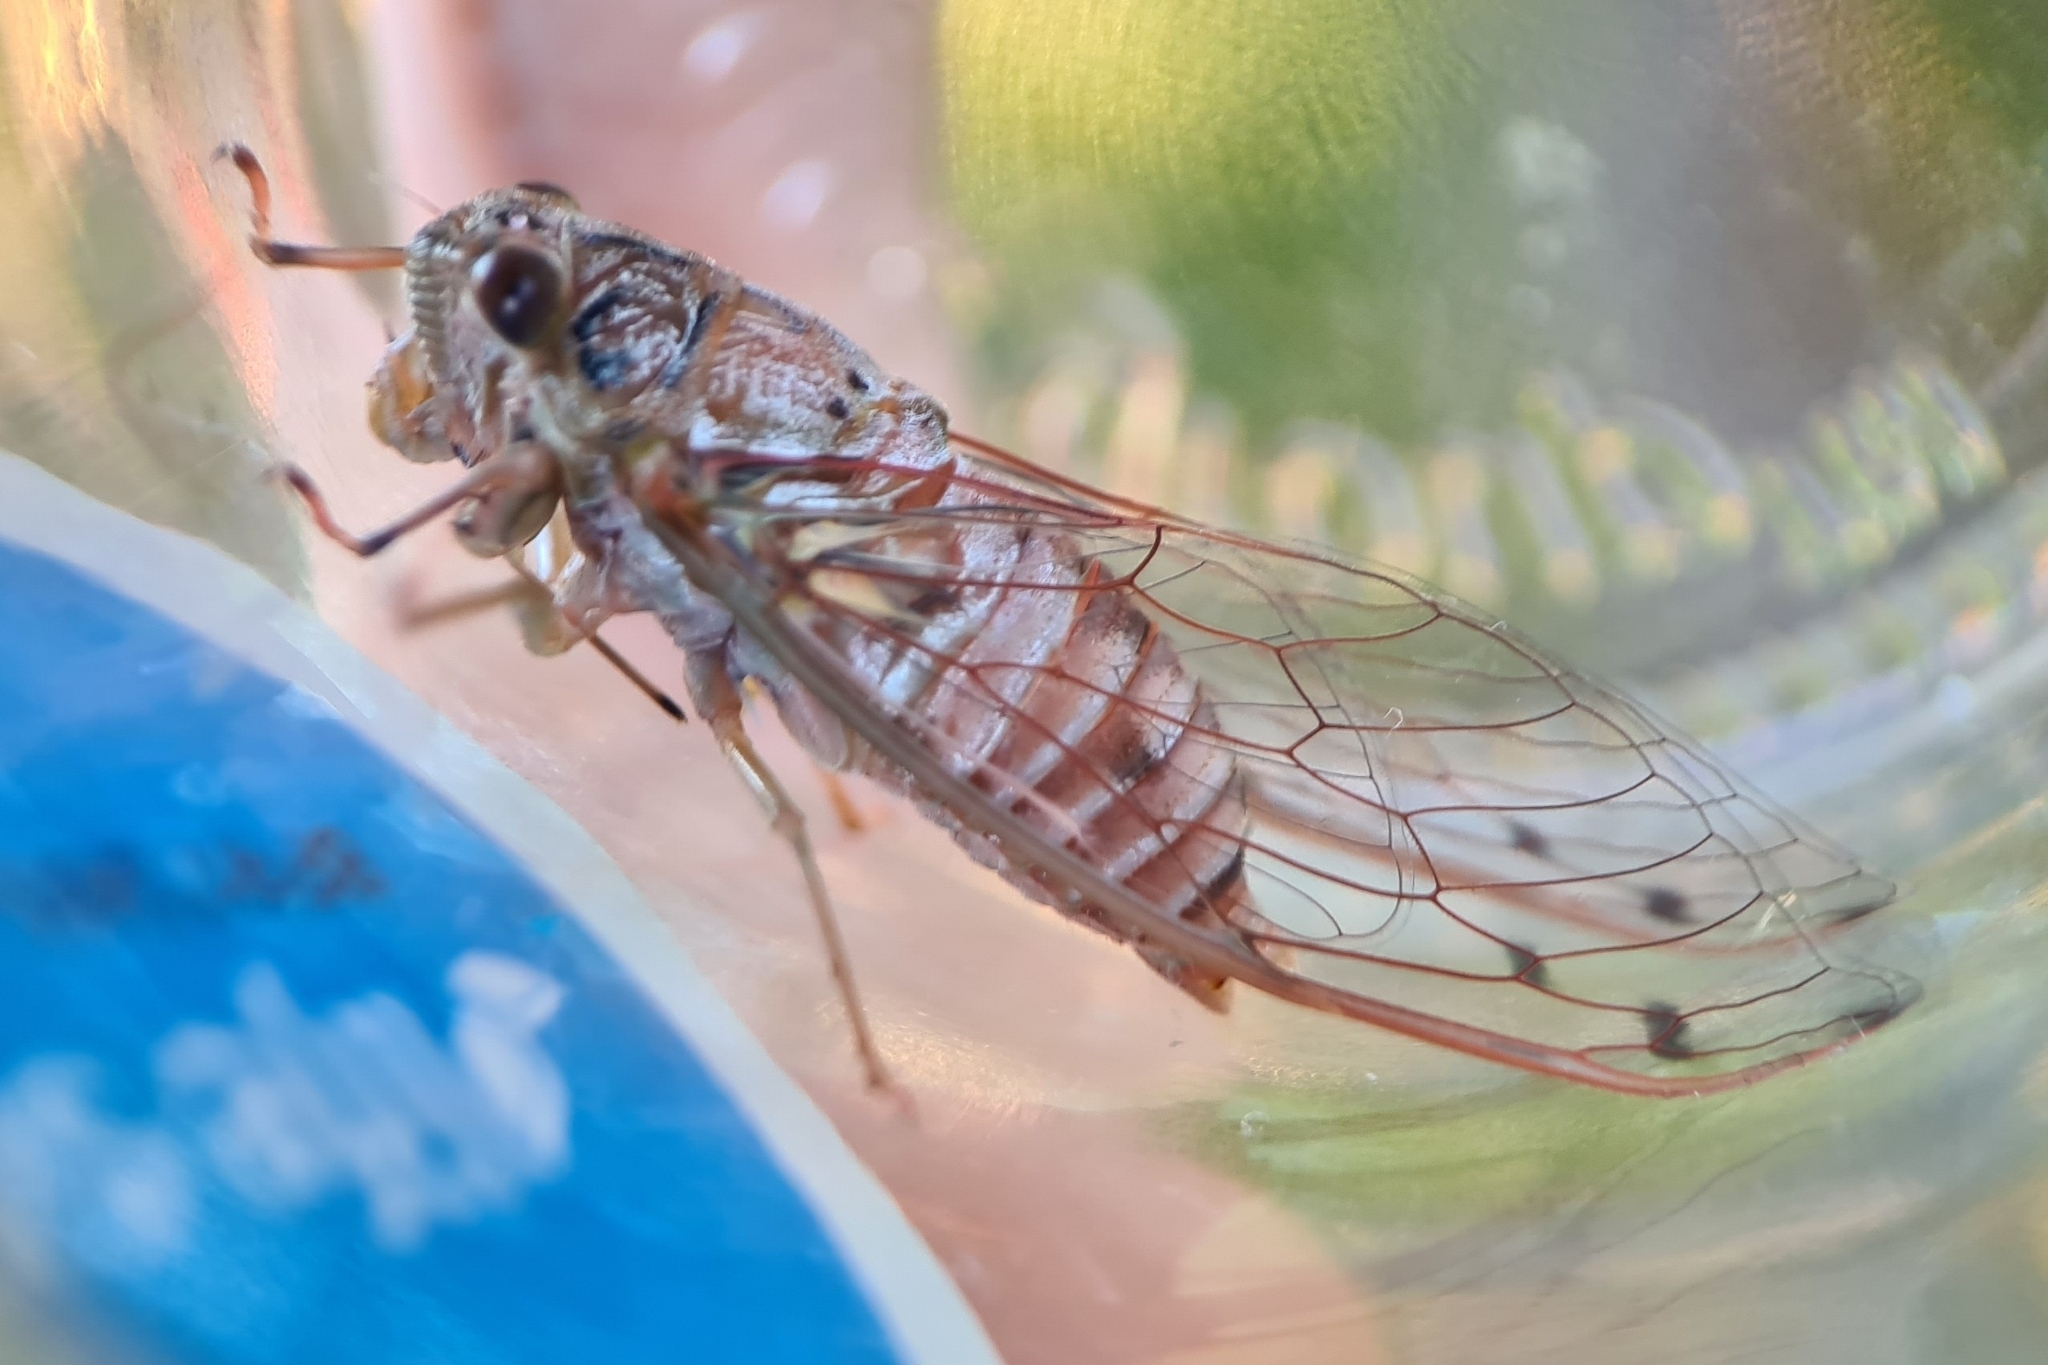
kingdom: Animalia
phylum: Arthropoda
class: Insecta
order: Hemiptera
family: Cicadidae
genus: Tamasa
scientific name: Tamasa tristigma
